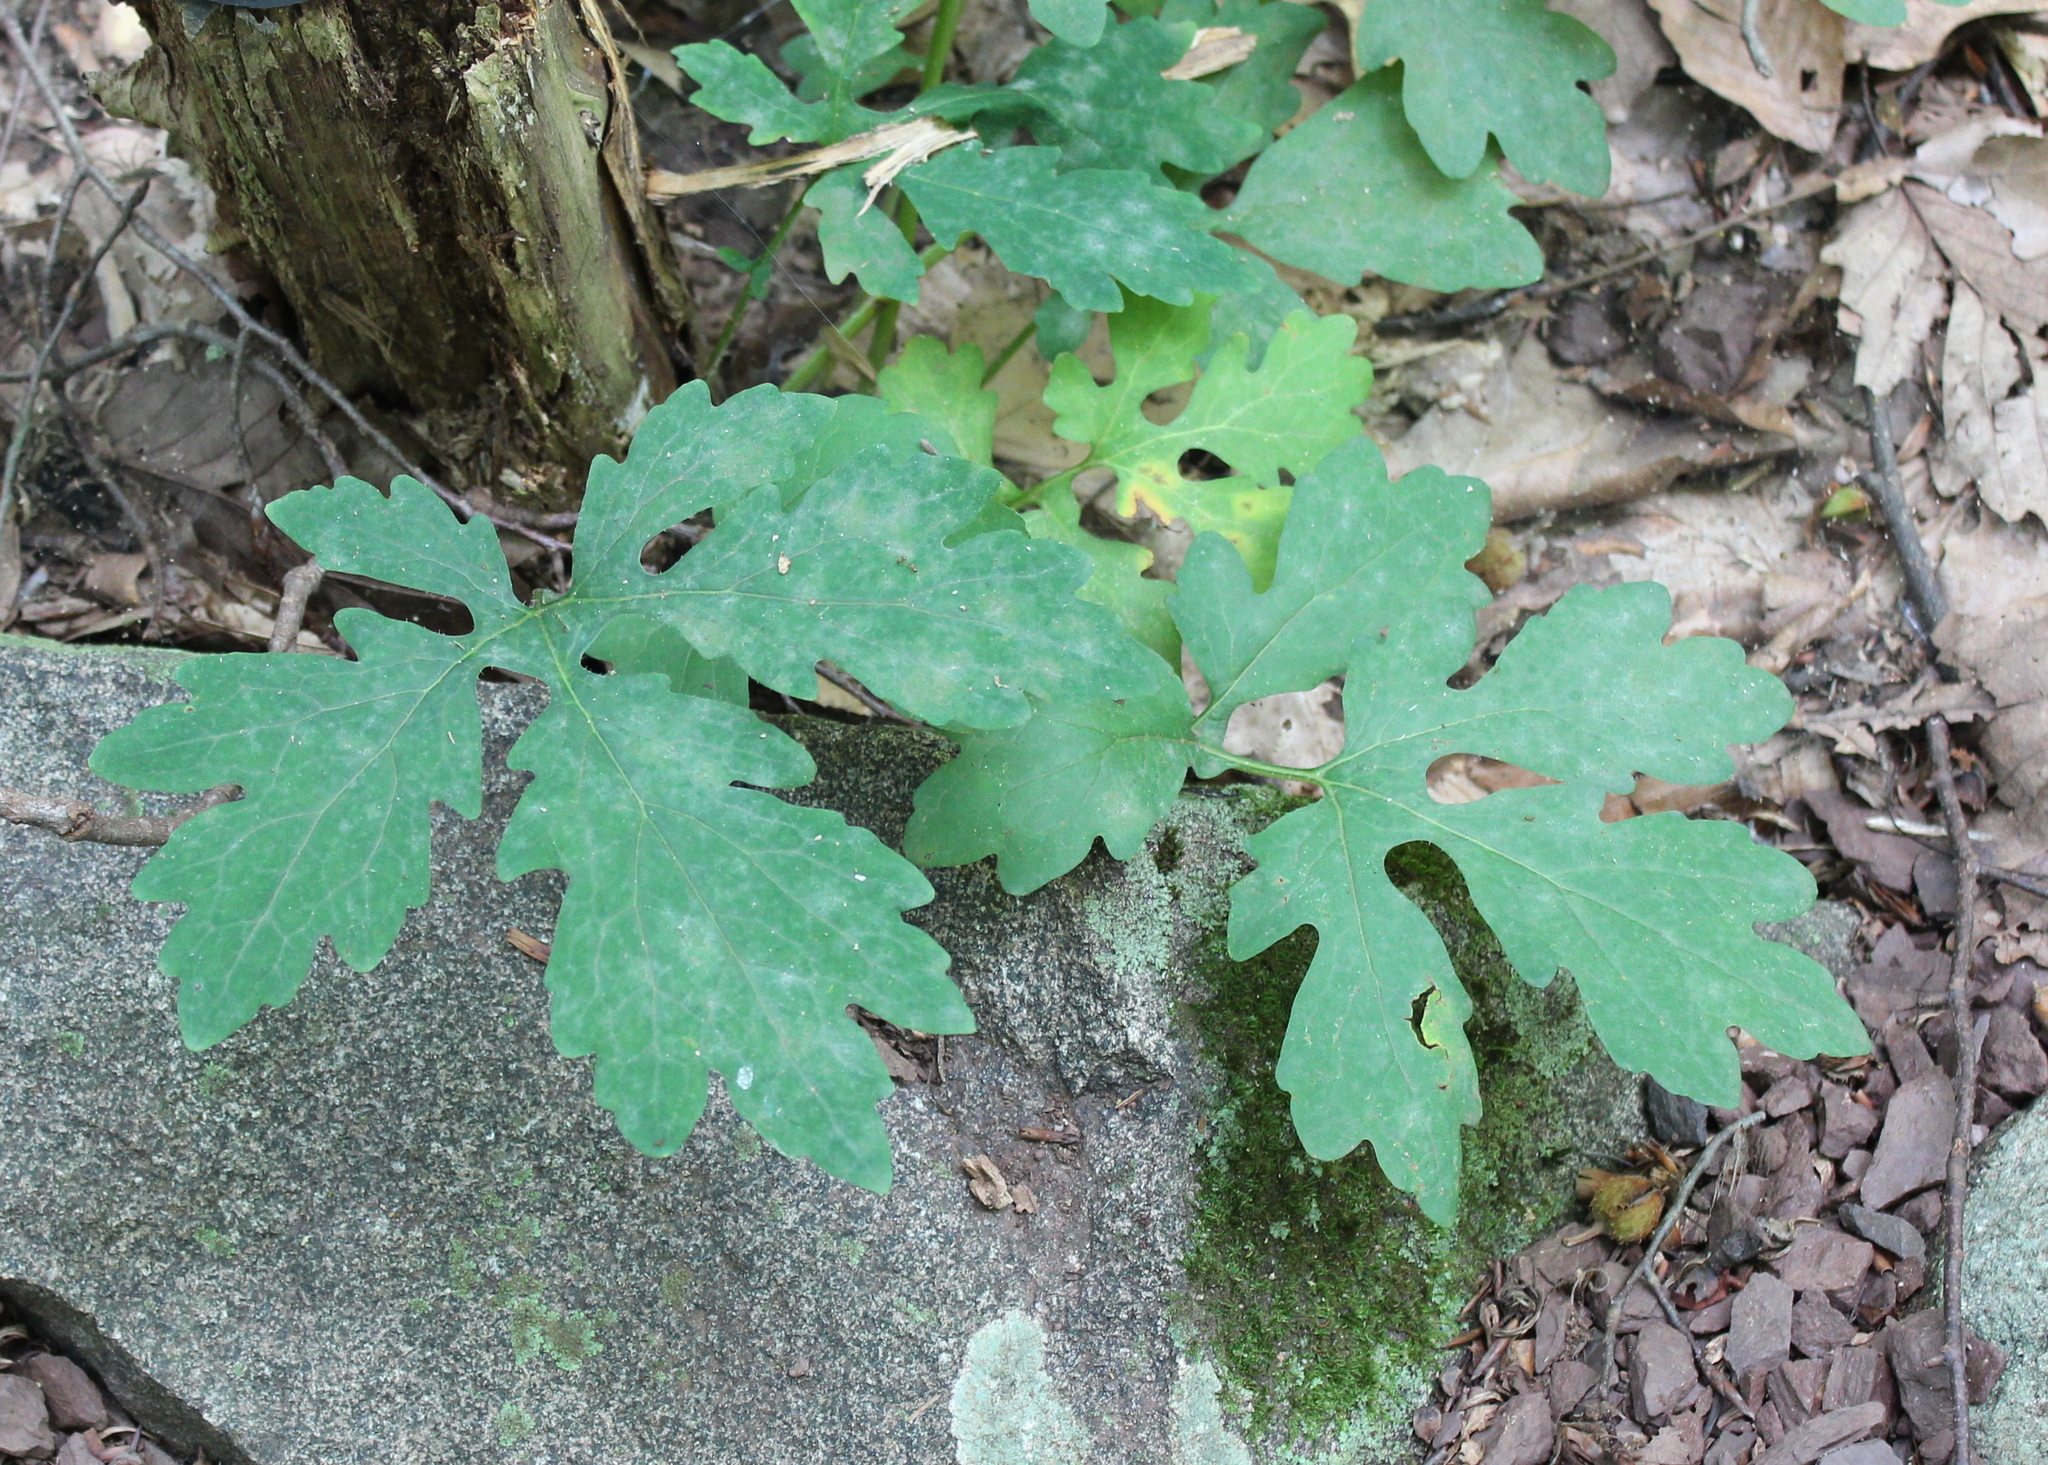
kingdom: Plantae
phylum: Tracheophyta
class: Magnoliopsida
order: Ranunculales
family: Papaveraceae
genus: Stylophorum
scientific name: Stylophorum diphyllum
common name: Celandine poppy
